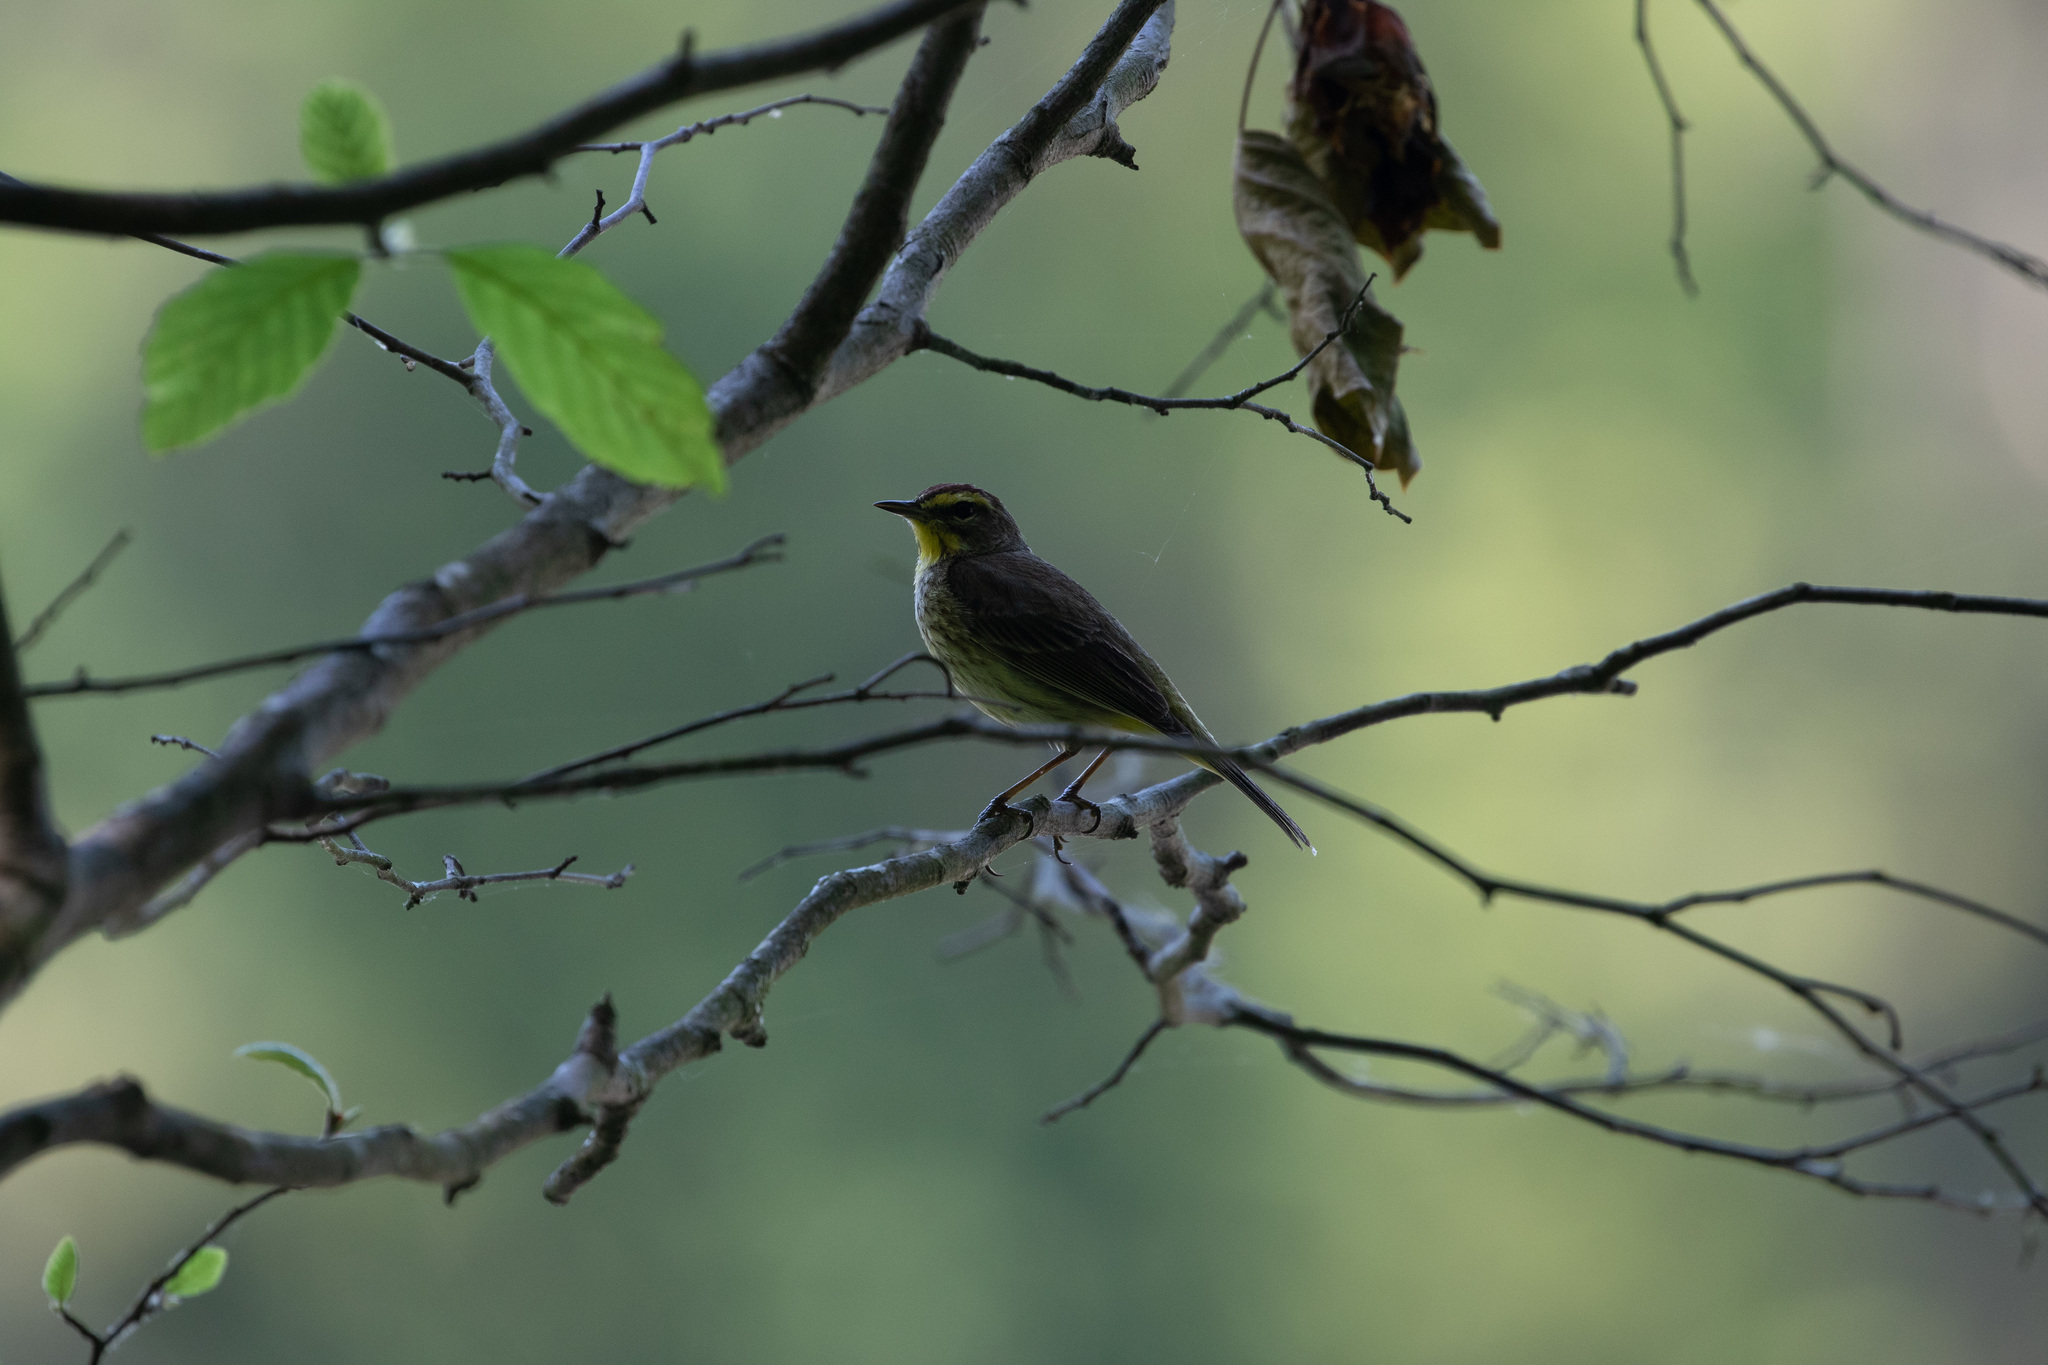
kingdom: Animalia
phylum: Chordata
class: Aves
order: Passeriformes
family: Parulidae
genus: Setophaga
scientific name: Setophaga palmarum
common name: Palm warbler
